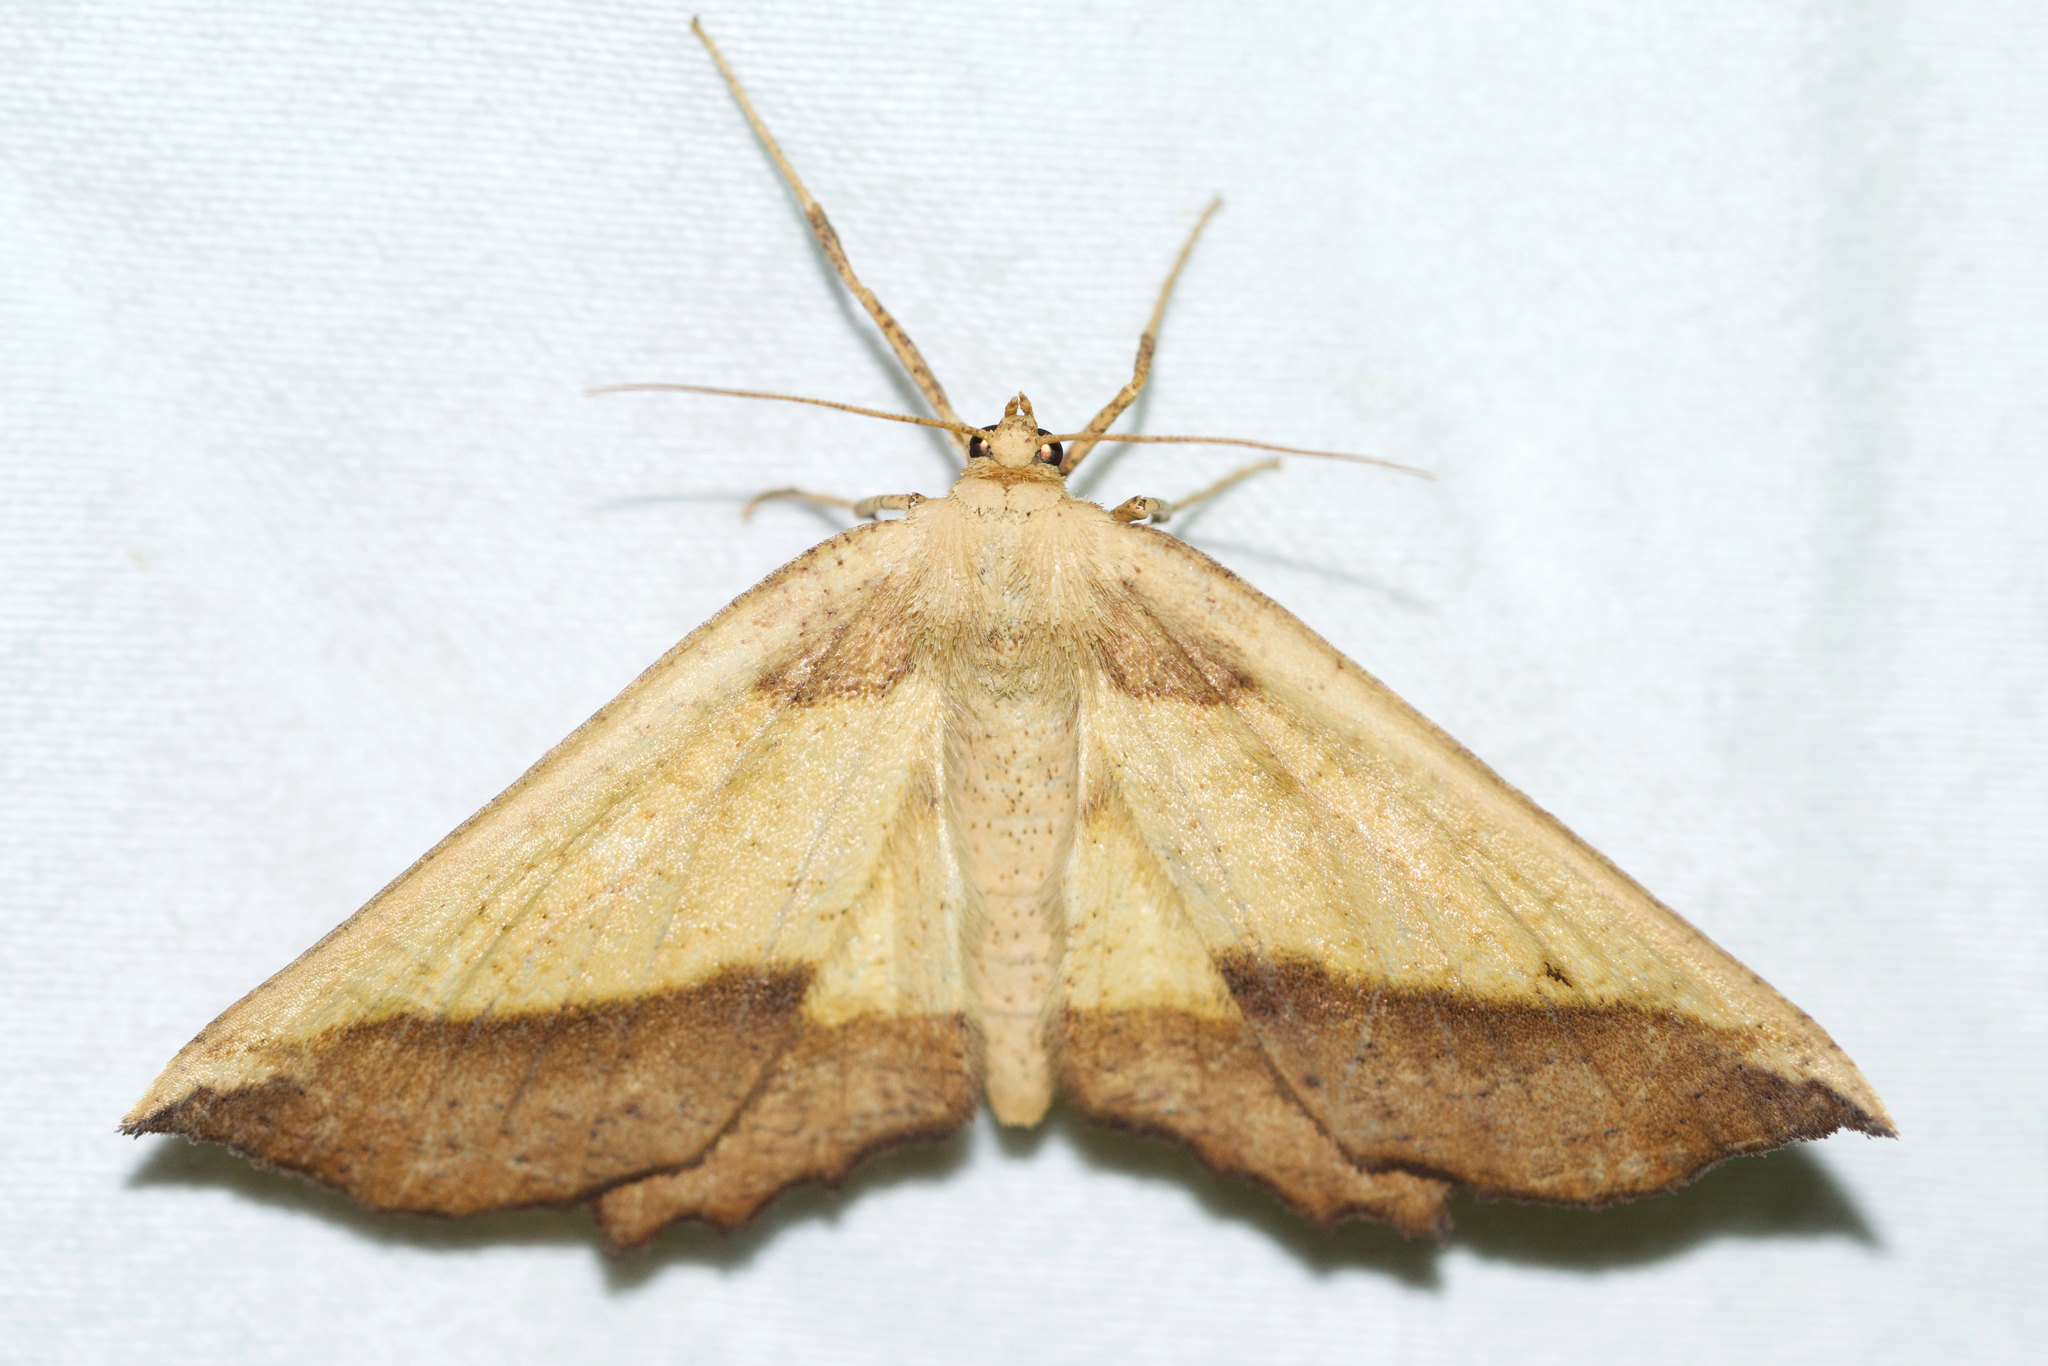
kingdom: Animalia
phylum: Arthropoda
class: Insecta
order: Lepidoptera
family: Geometridae
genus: Euchlaena
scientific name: Euchlaena serrata
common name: Saw wing
